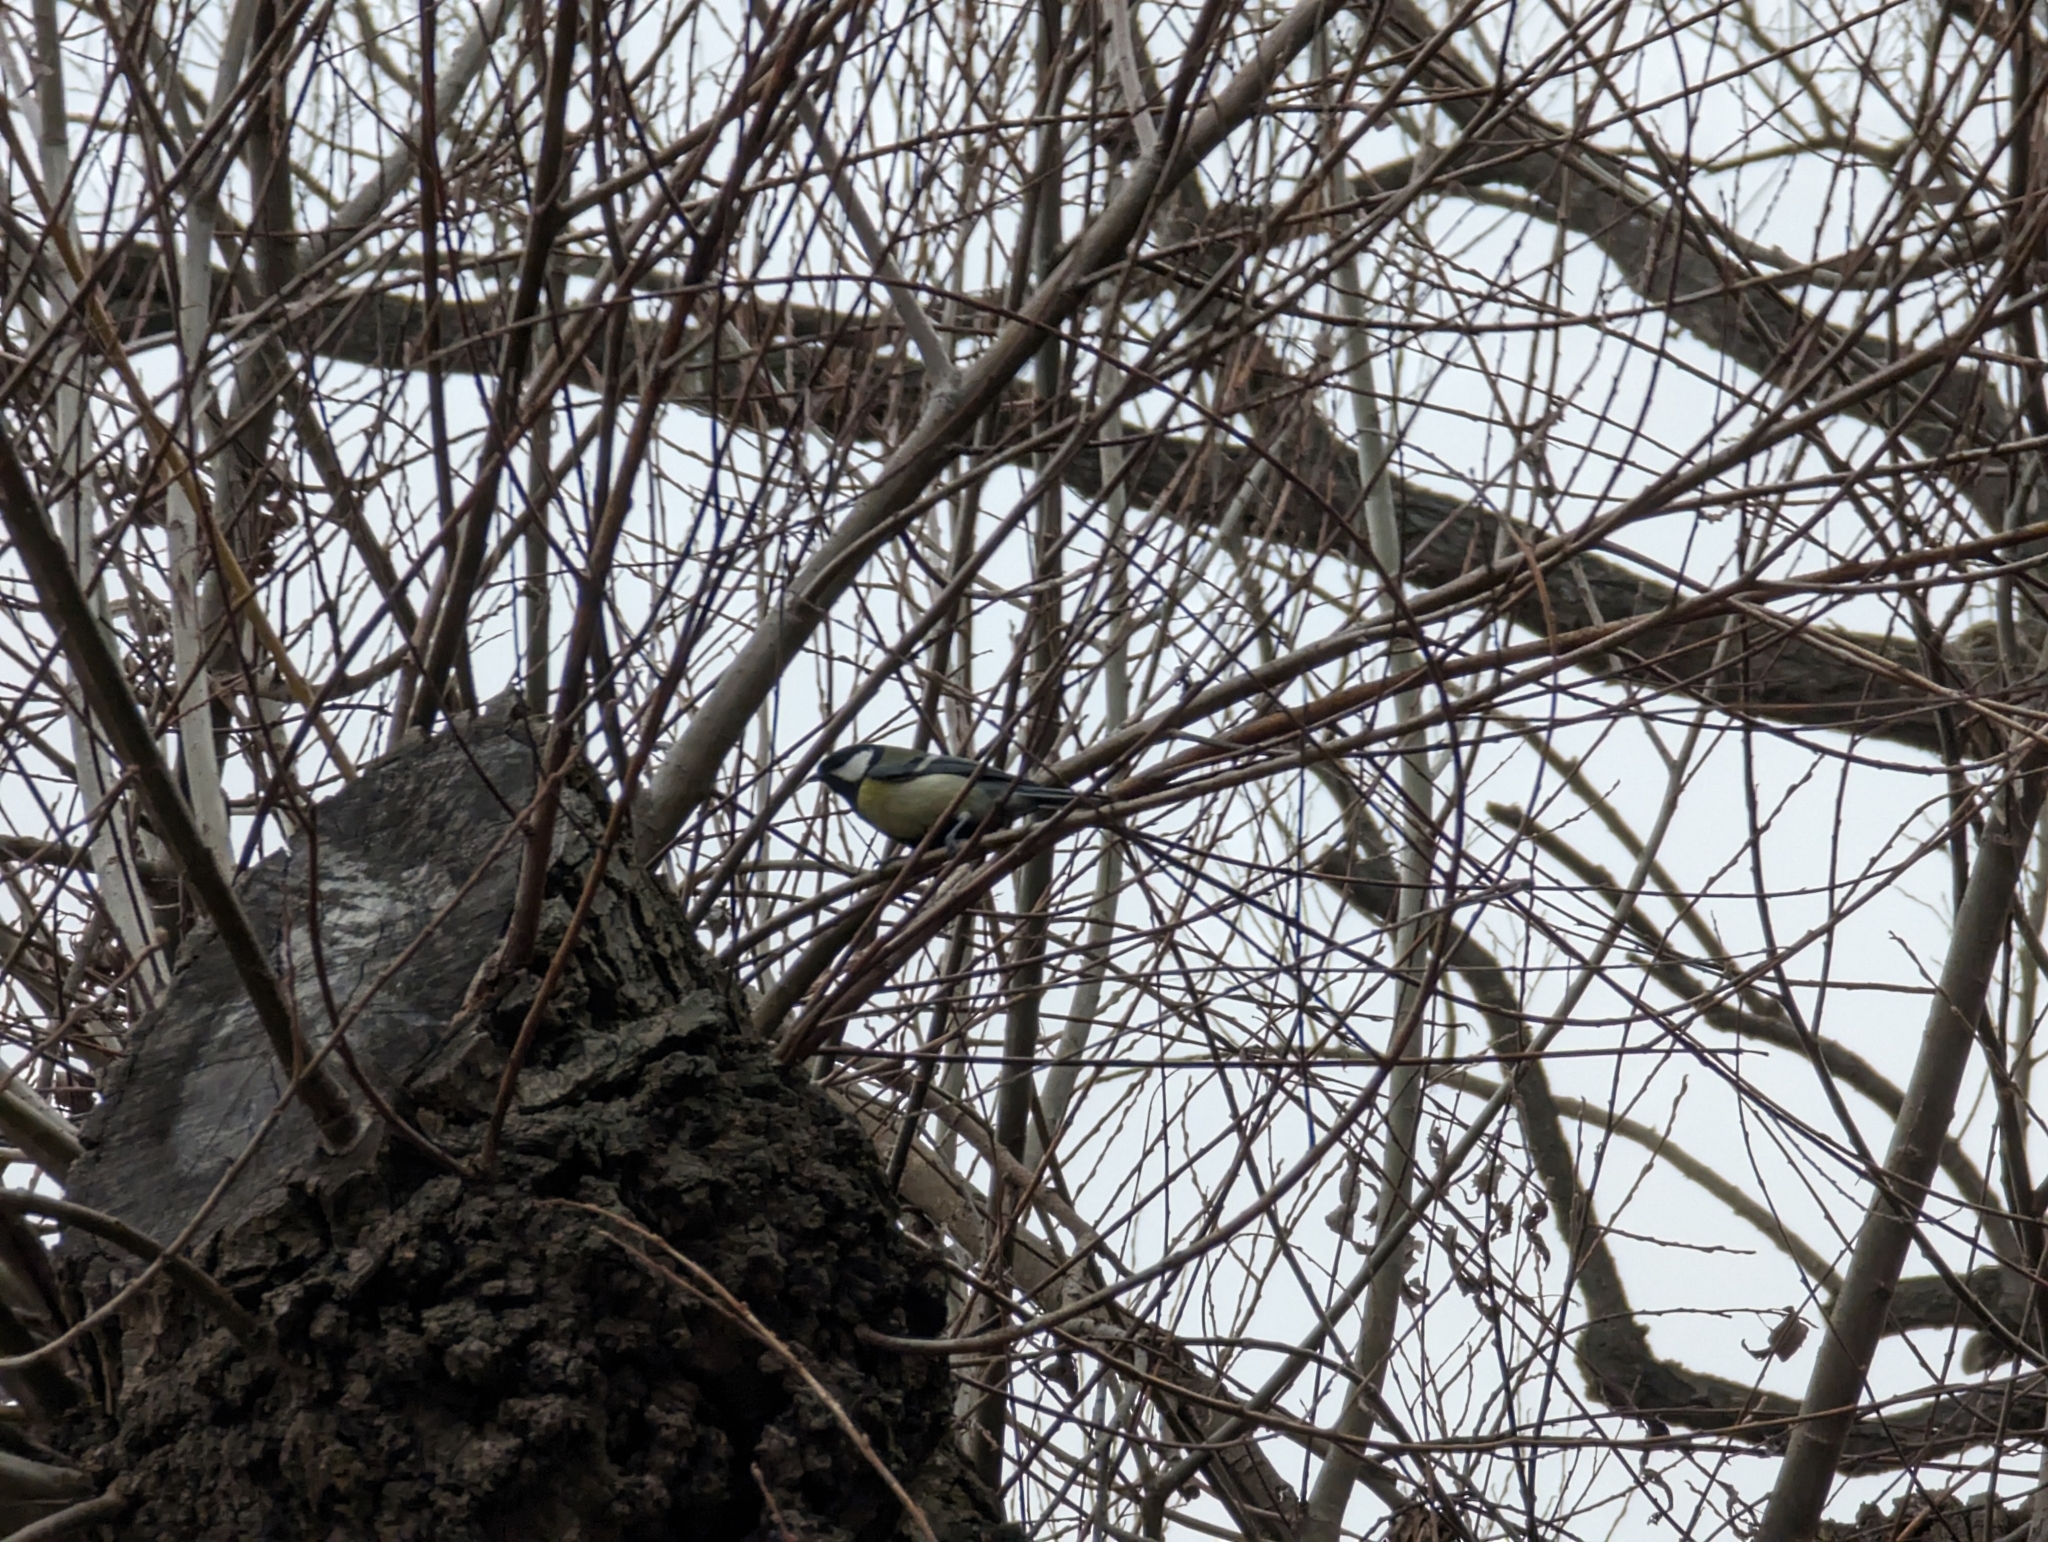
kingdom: Animalia
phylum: Chordata
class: Aves
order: Passeriformes
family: Paridae
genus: Parus
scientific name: Parus major
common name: Great tit
